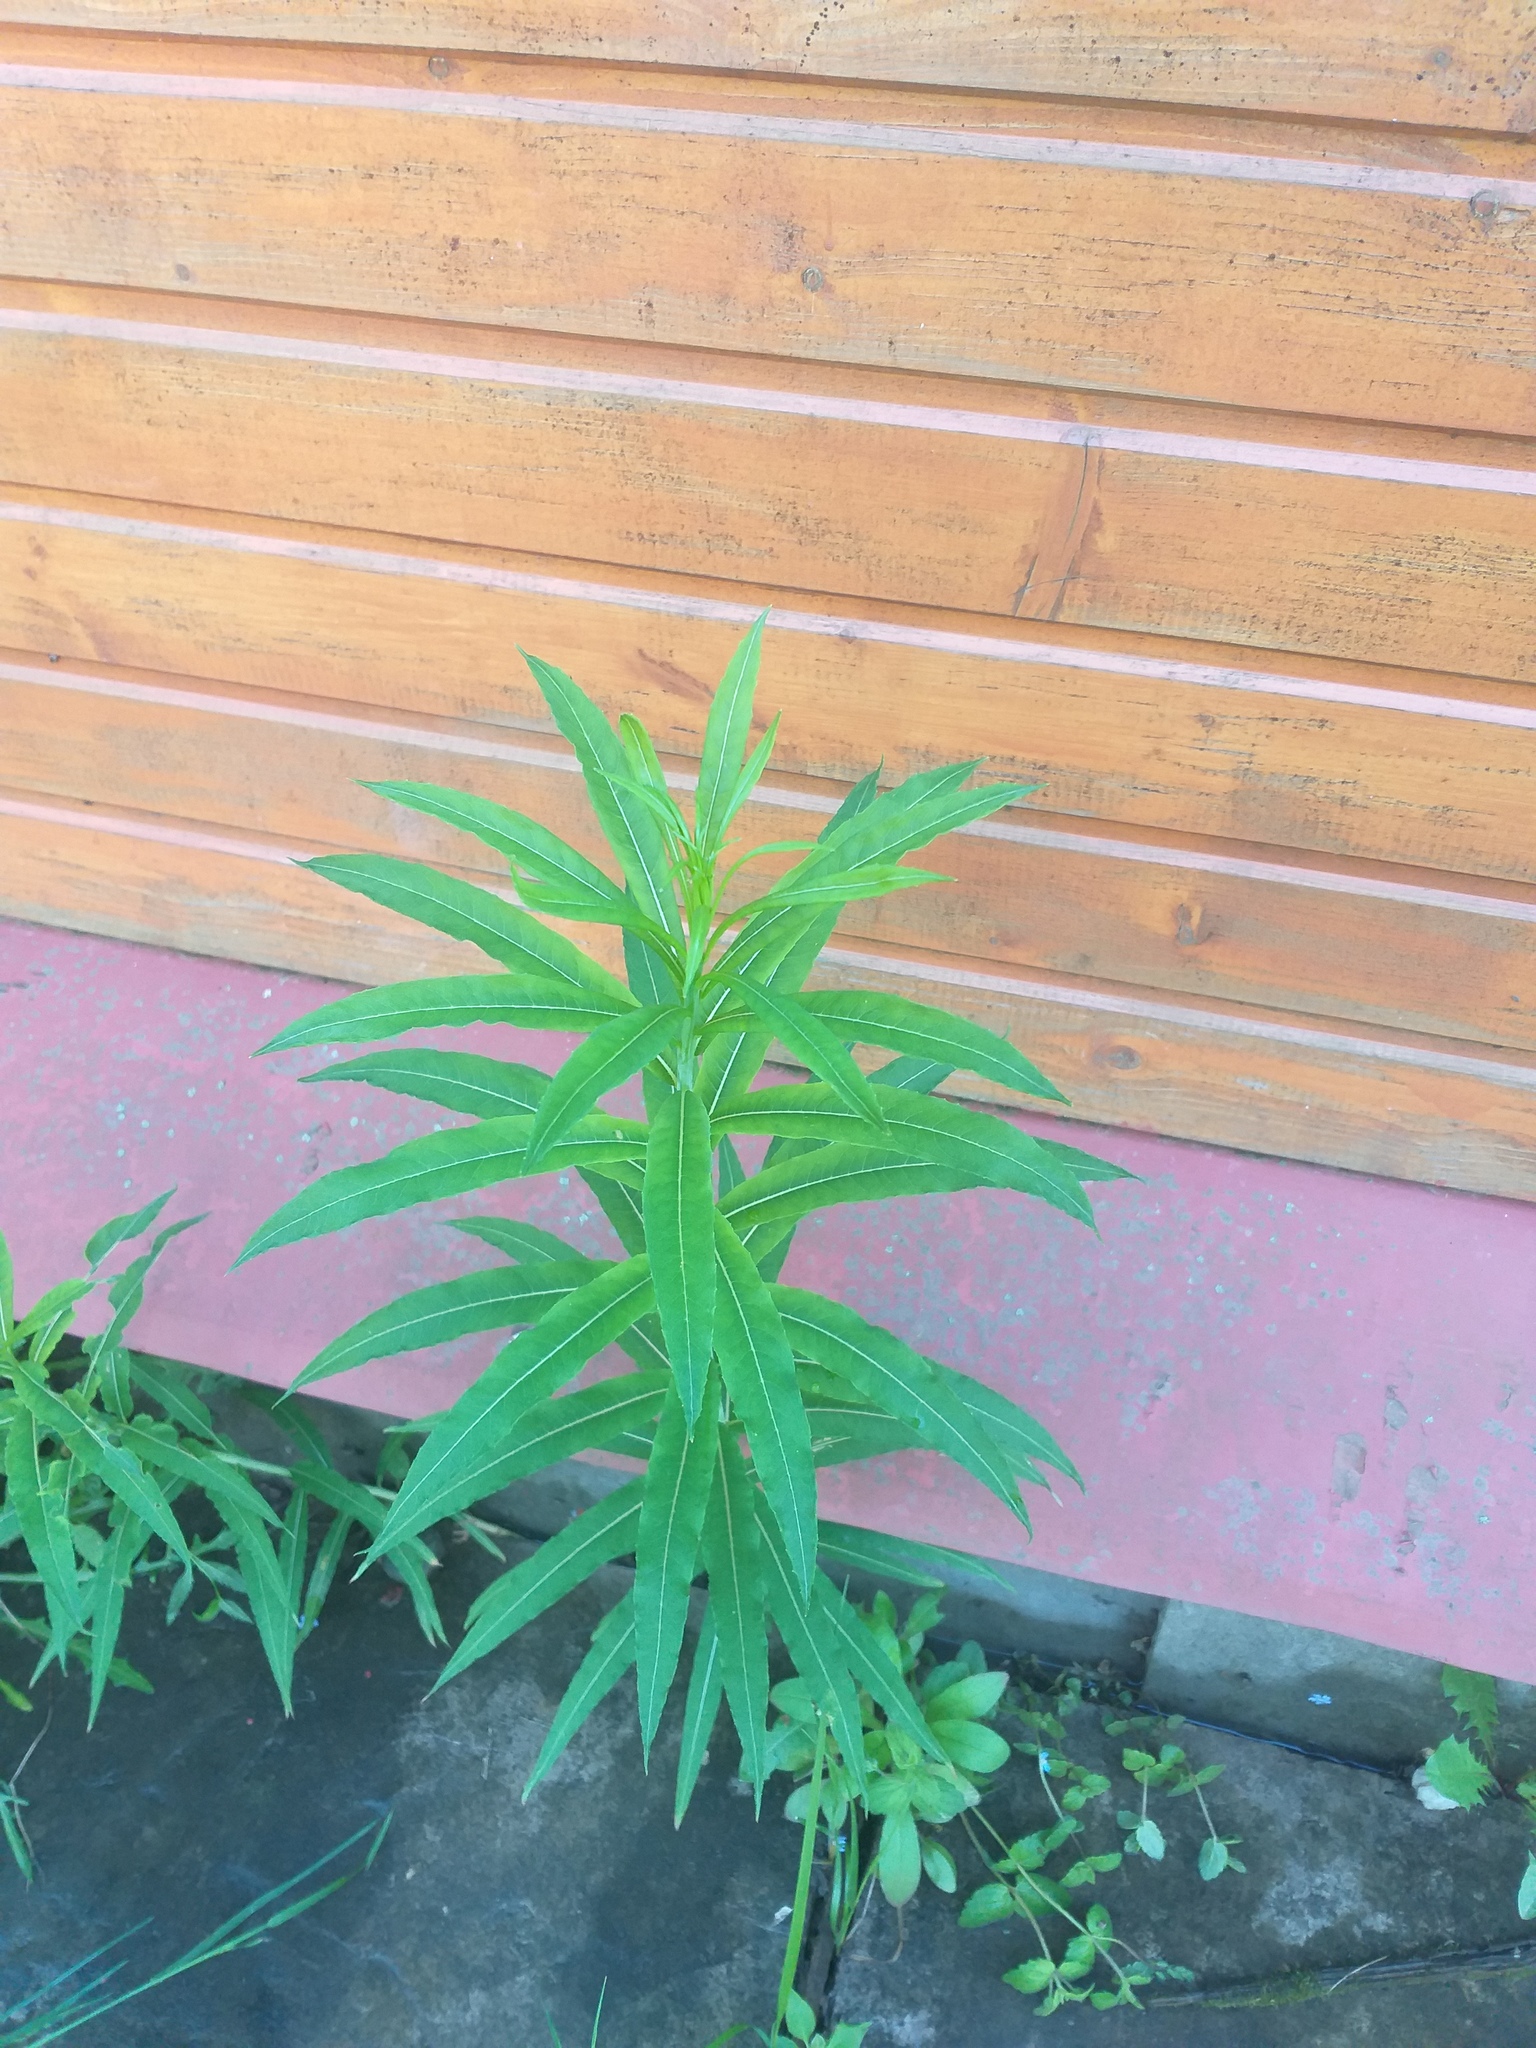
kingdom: Plantae
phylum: Tracheophyta
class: Magnoliopsida
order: Myrtales
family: Onagraceae
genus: Chamaenerion
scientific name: Chamaenerion angustifolium
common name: Fireweed
